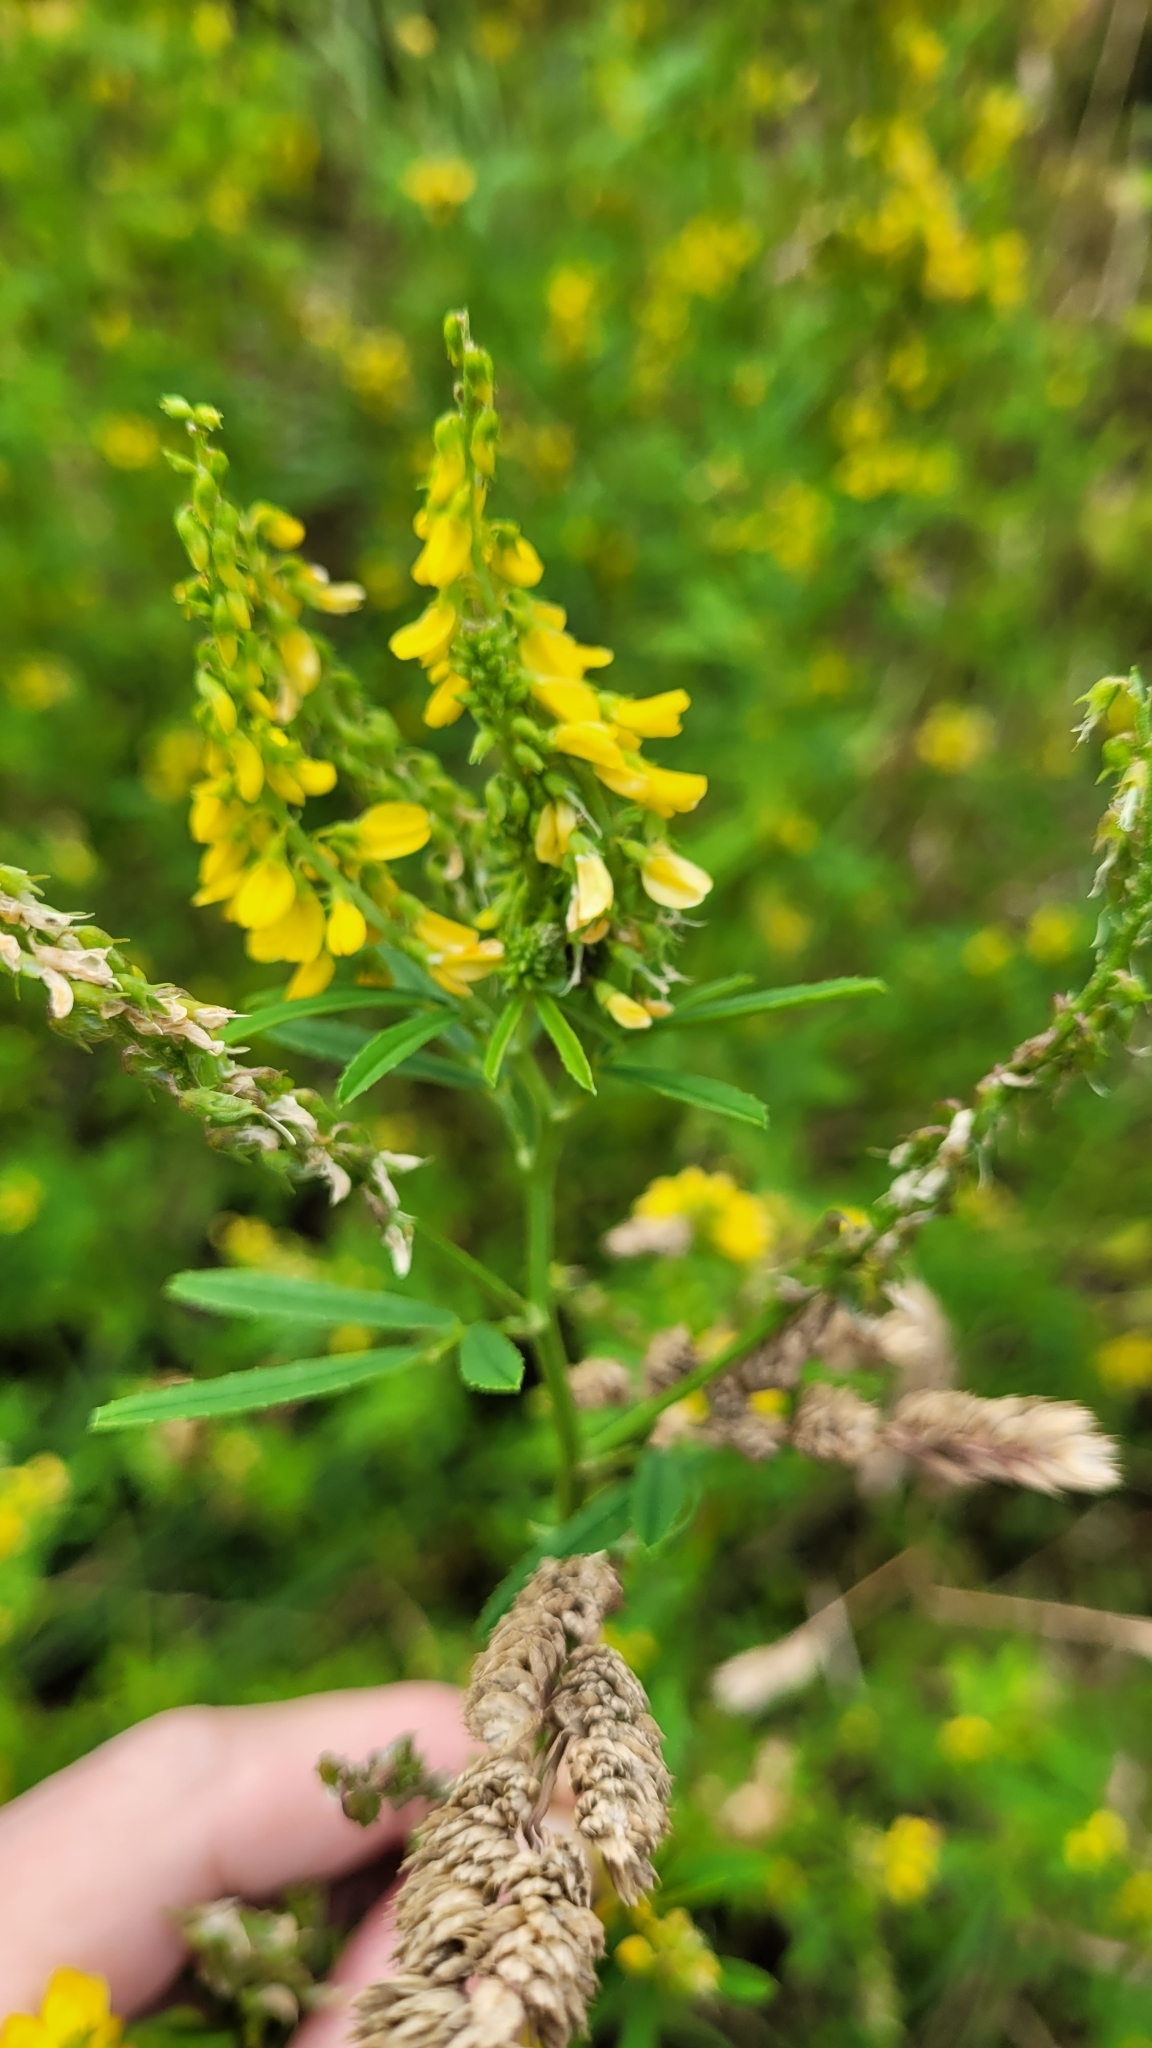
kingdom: Plantae
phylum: Tracheophyta
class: Magnoliopsida
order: Fabales
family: Fabaceae
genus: Melilotus
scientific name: Melilotus officinalis
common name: Sweetclover
